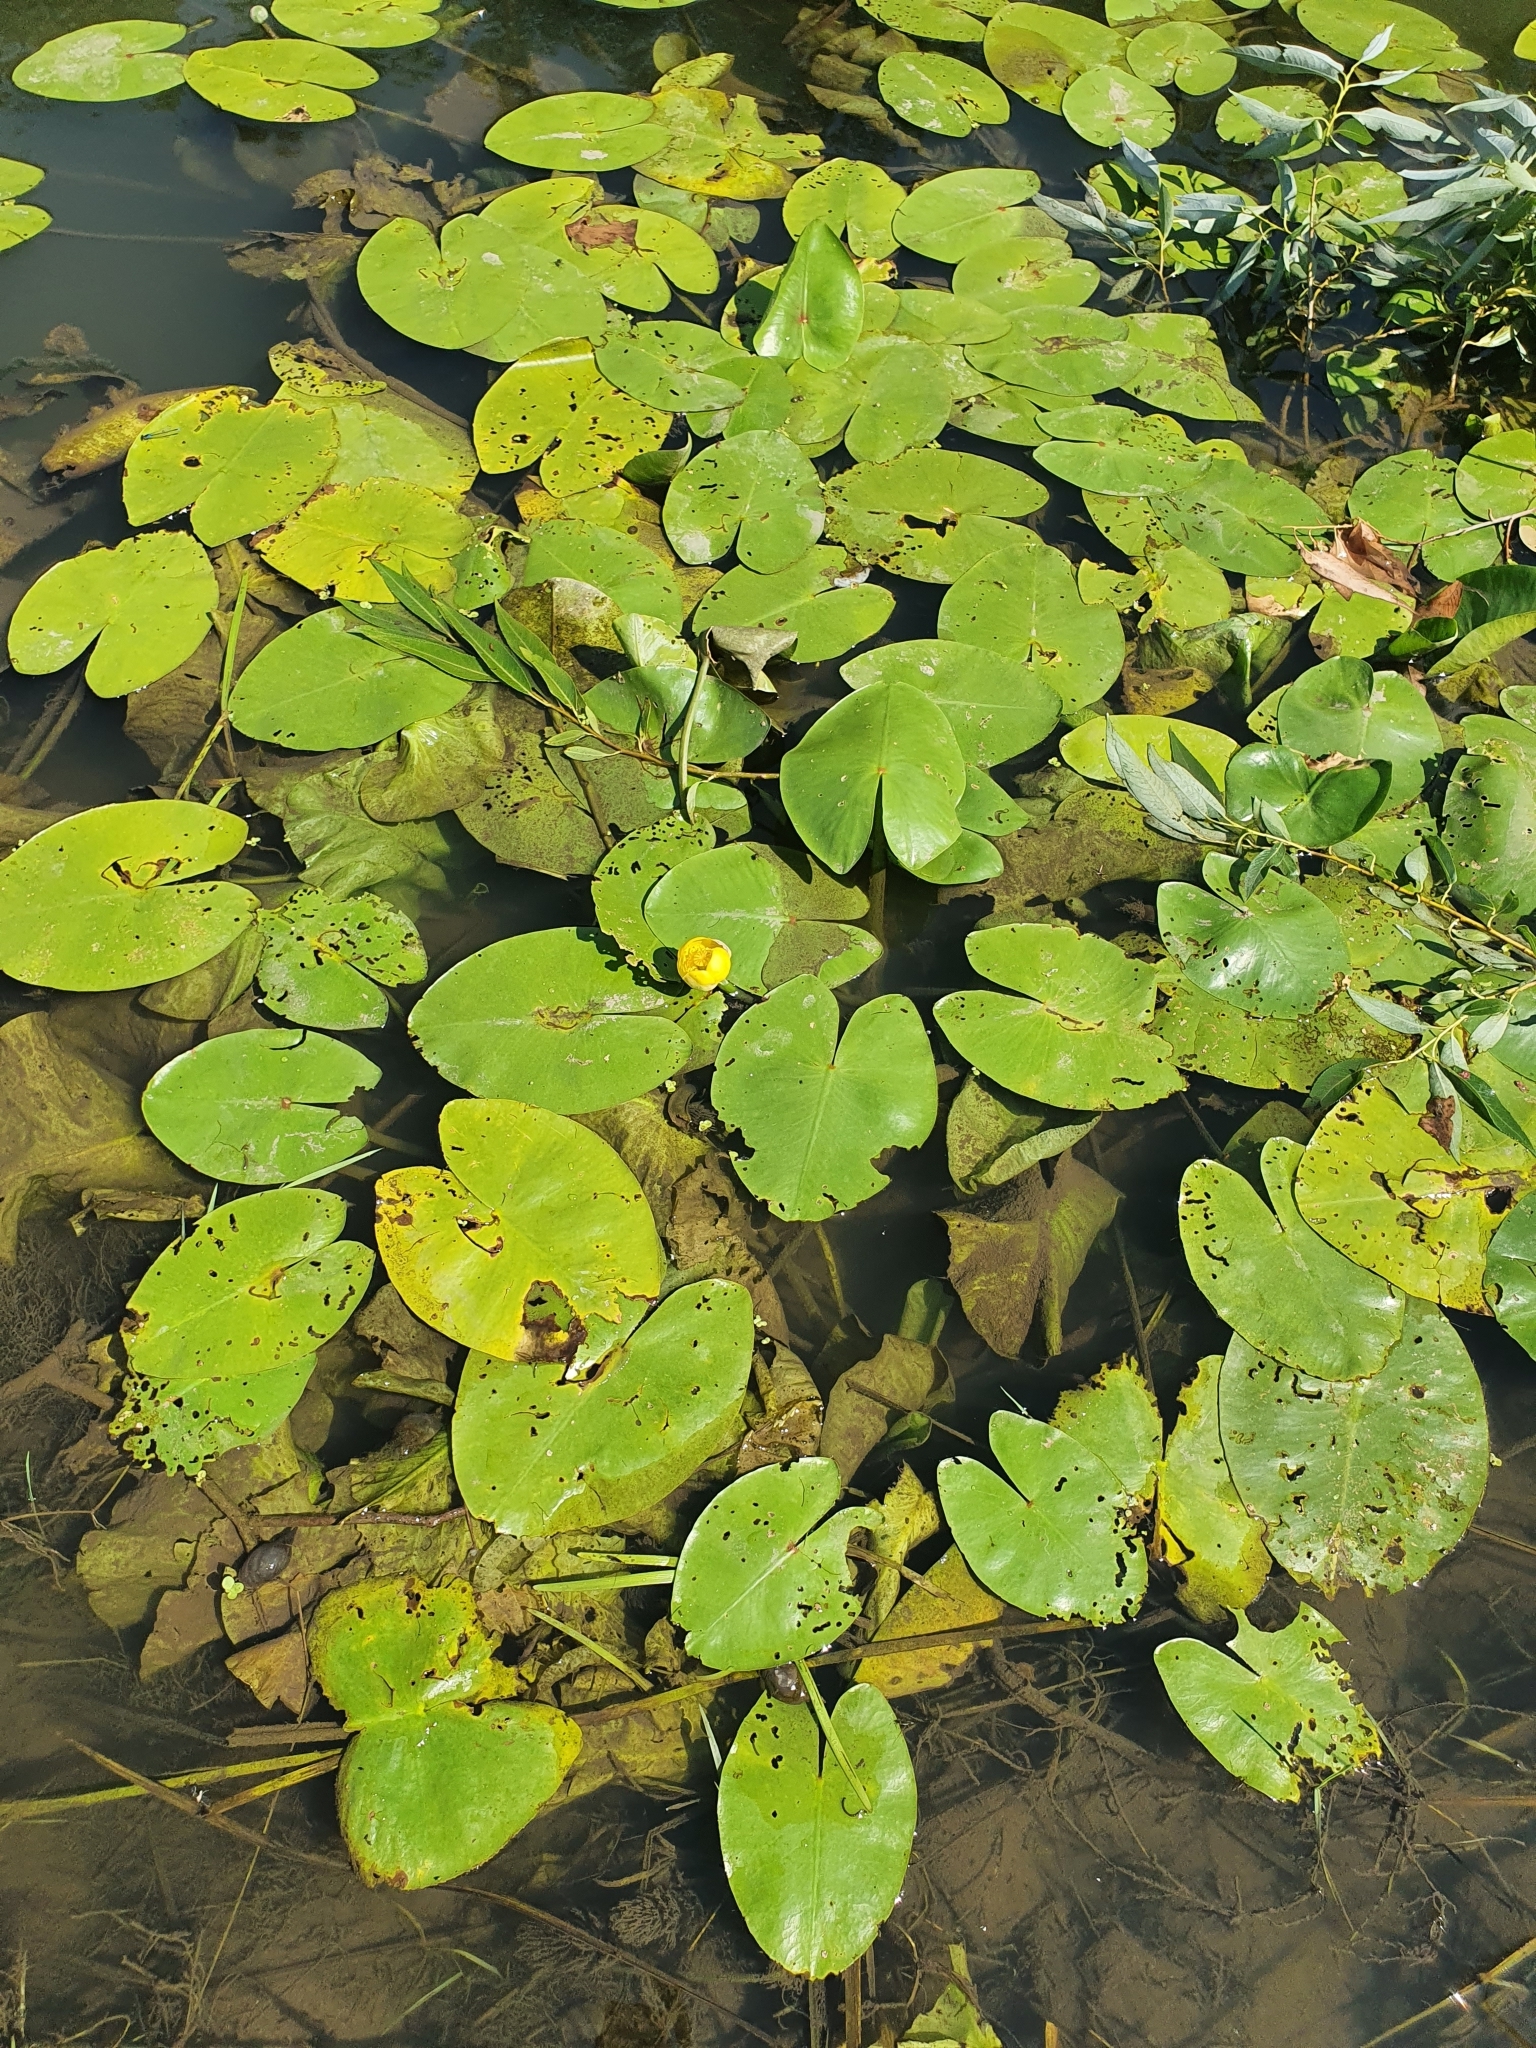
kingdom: Plantae
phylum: Tracheophyta
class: Magnoliopsida
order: Nymphaeales
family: Nymphaeaceae
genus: Nuphar
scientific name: Nuphar lutea
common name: Yellow water-lily
